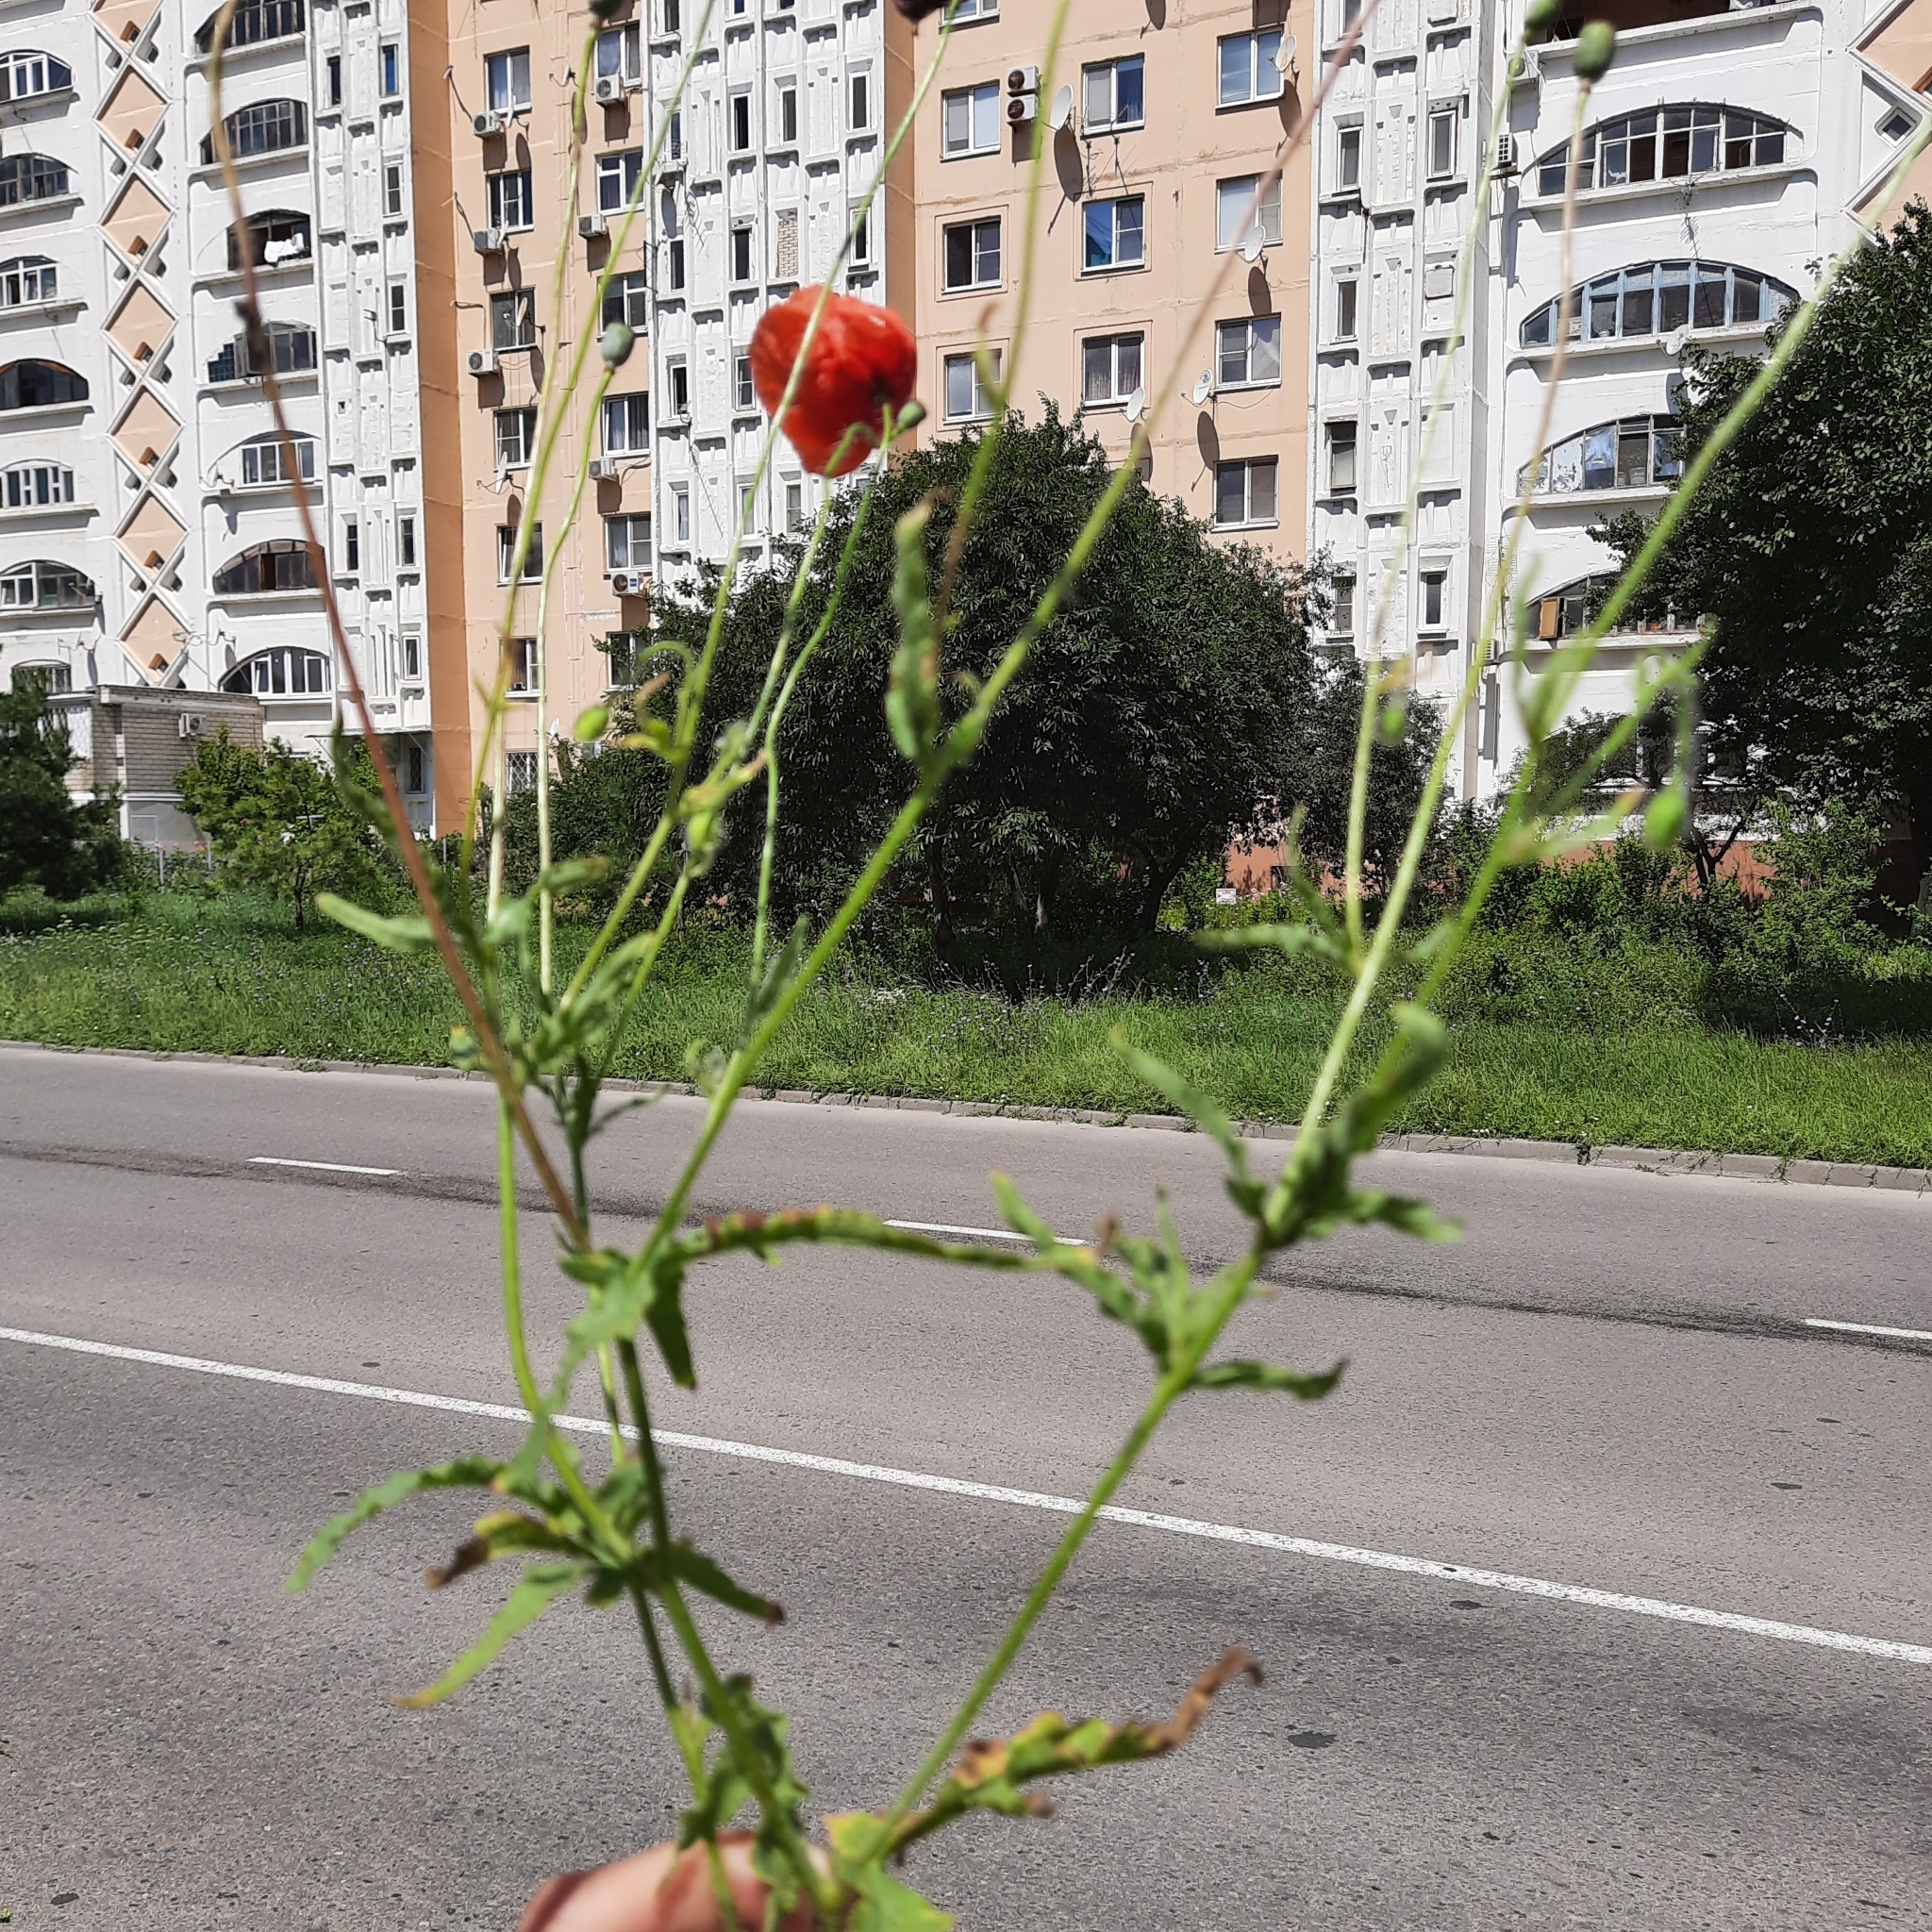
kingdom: Plantae
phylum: Tracheophyta
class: Magnoliopsida
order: Ranunculales
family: Papaveraceae
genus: Papaver
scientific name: Papaver rhoeas
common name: Corn poppy
